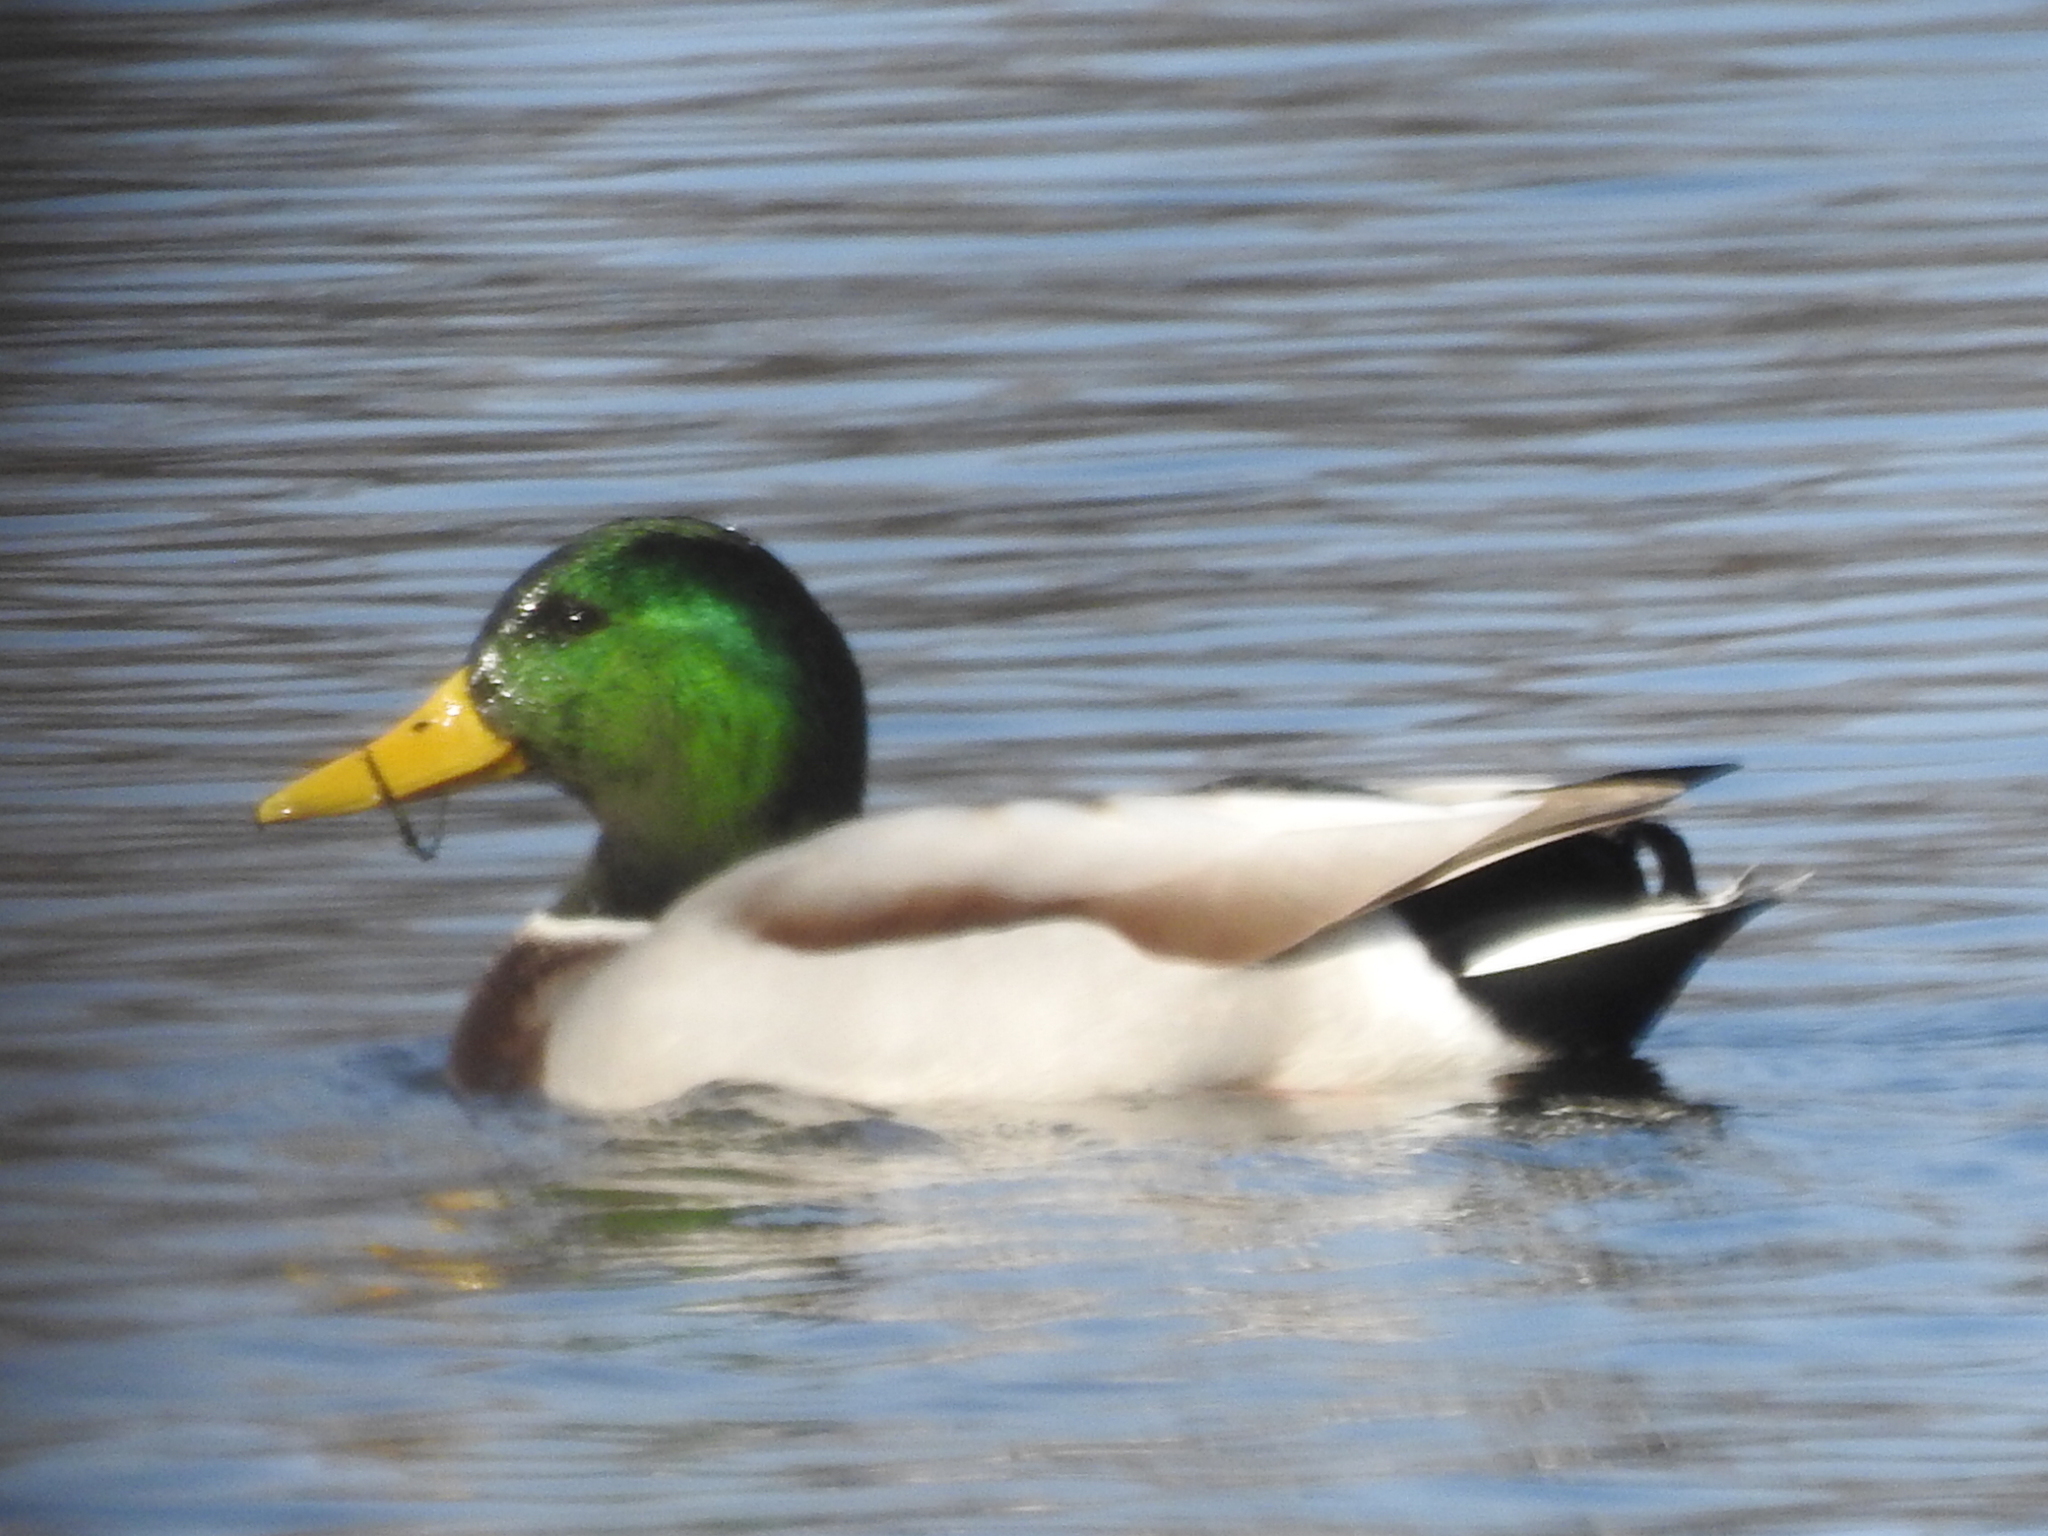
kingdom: Animalia
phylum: Chordata
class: Aves
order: Anseriformes
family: Anatidae
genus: Anas
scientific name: Anas platyrhynchos
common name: Mallard
